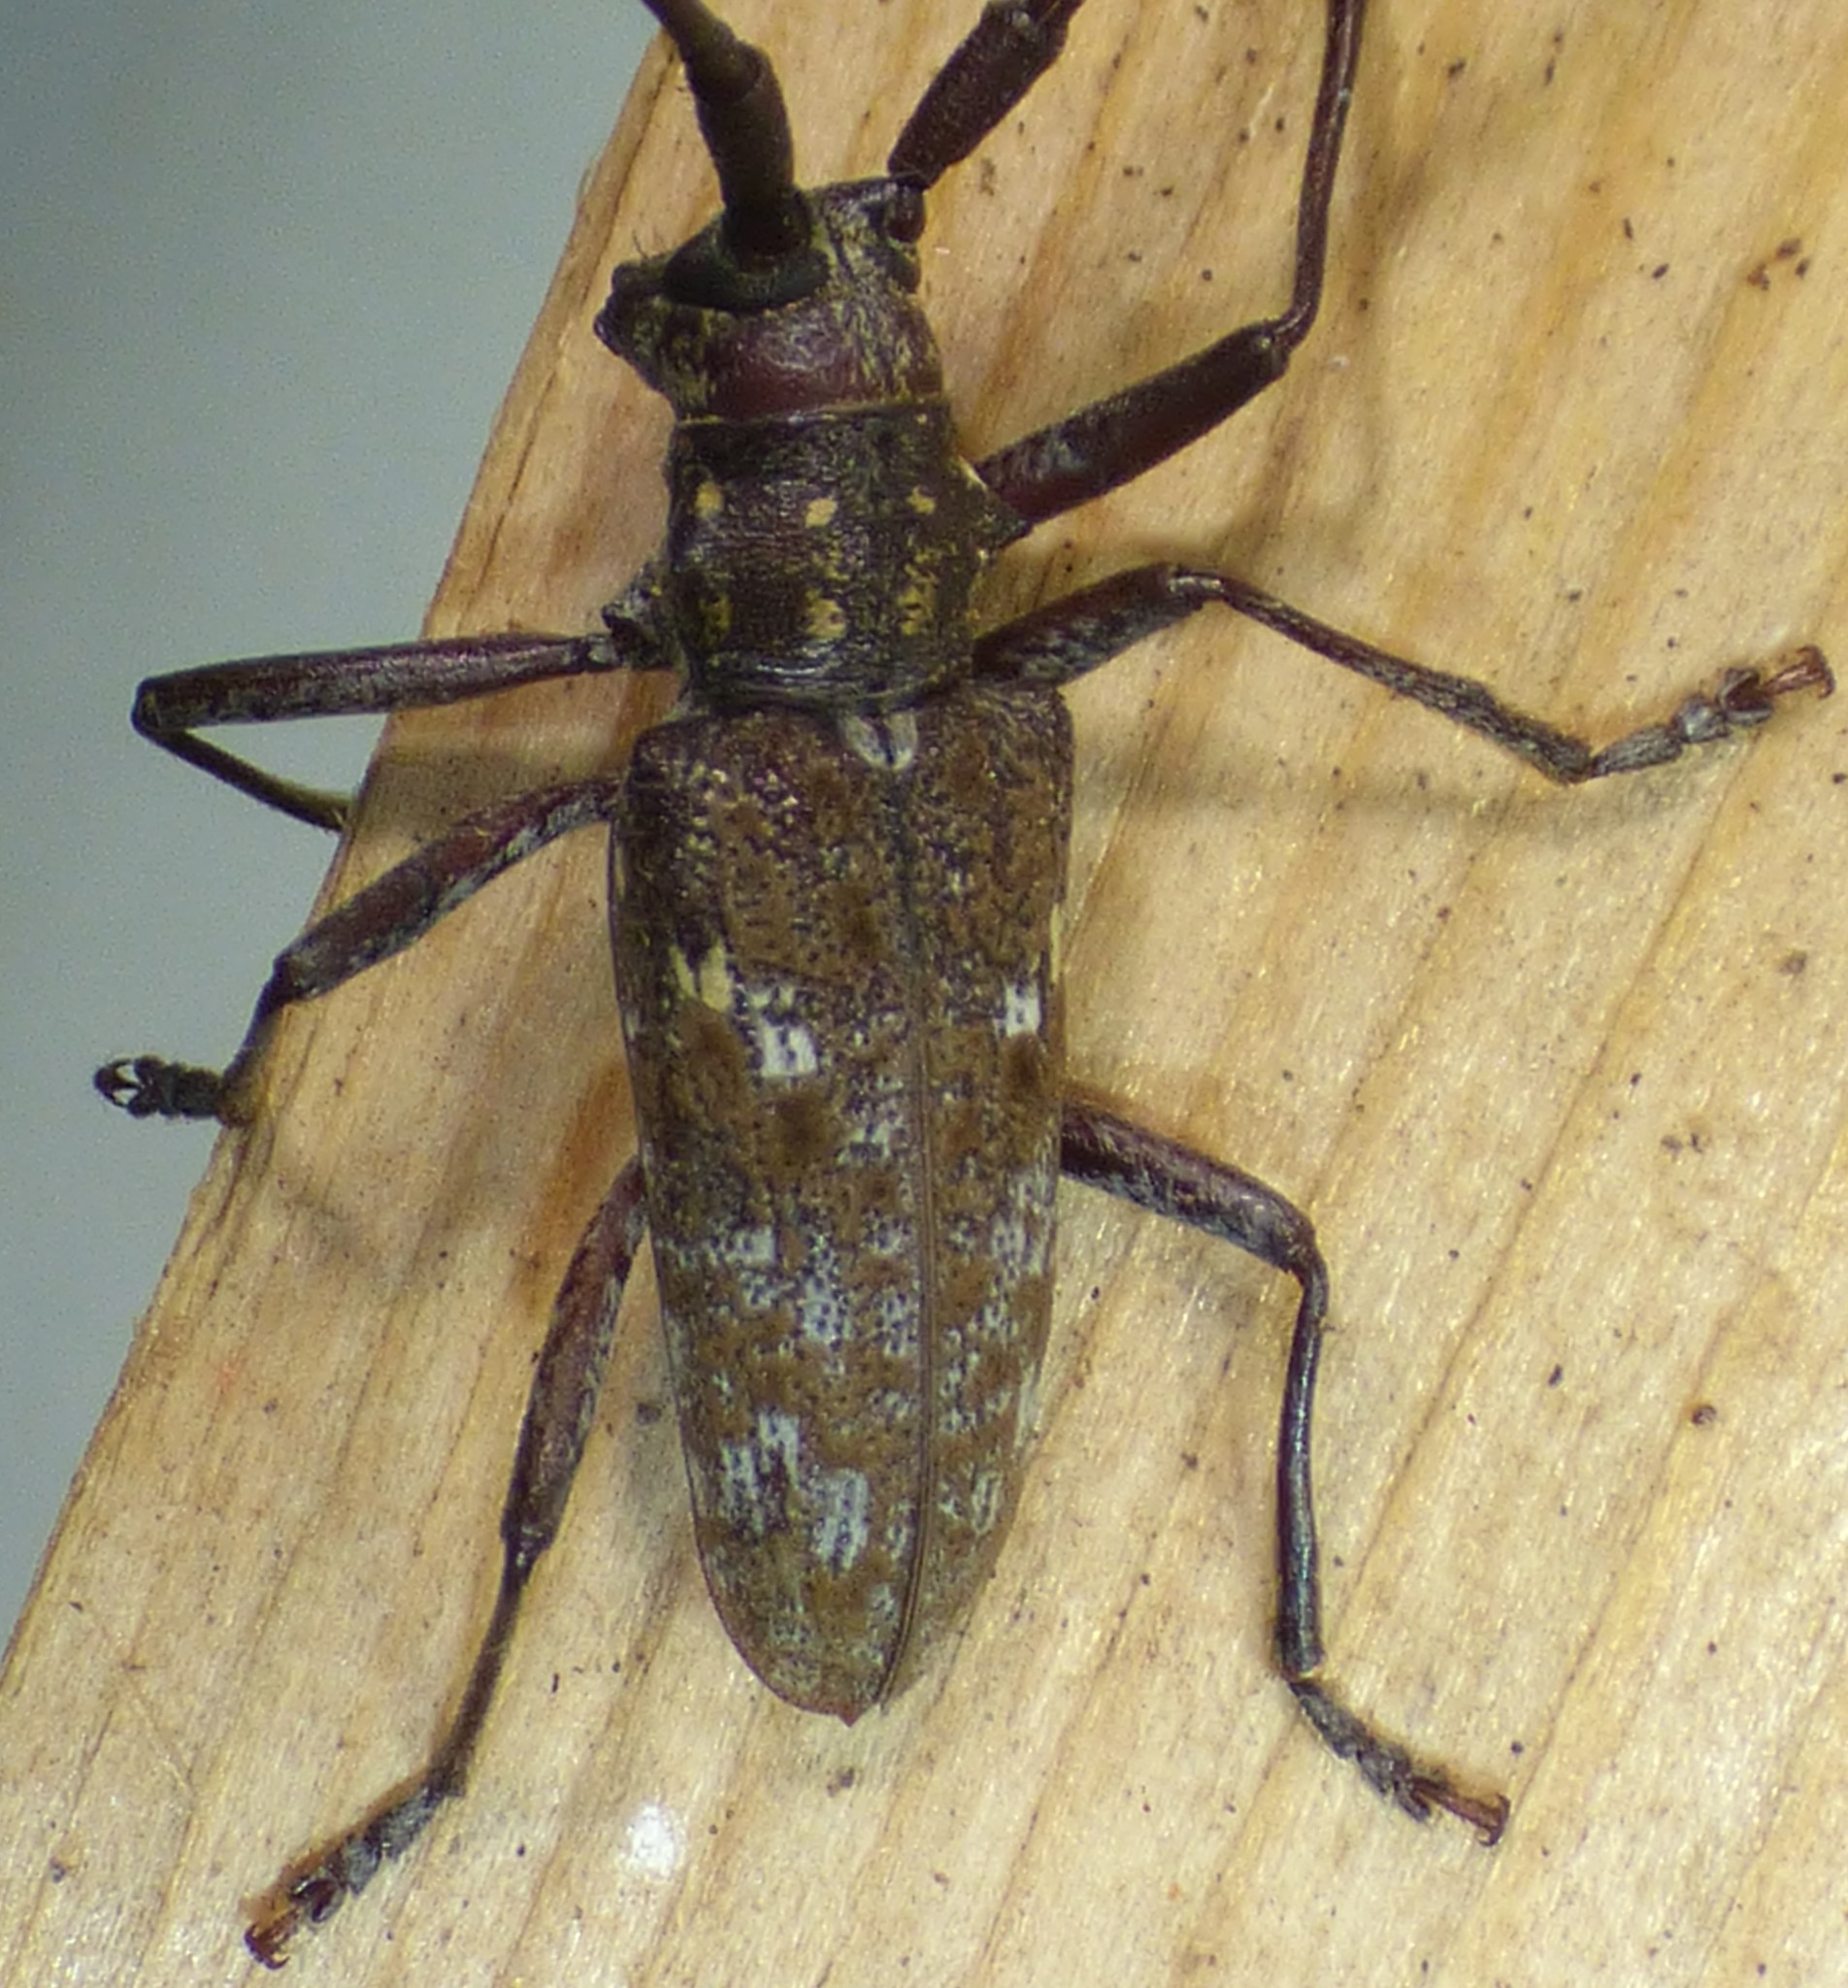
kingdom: Animalia
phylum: Arthropoda
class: Insecta
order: Coleoptera
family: Cerambycidae
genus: Monochamus
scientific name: Monochamus carolinensis
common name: Carolina pine sawyer
